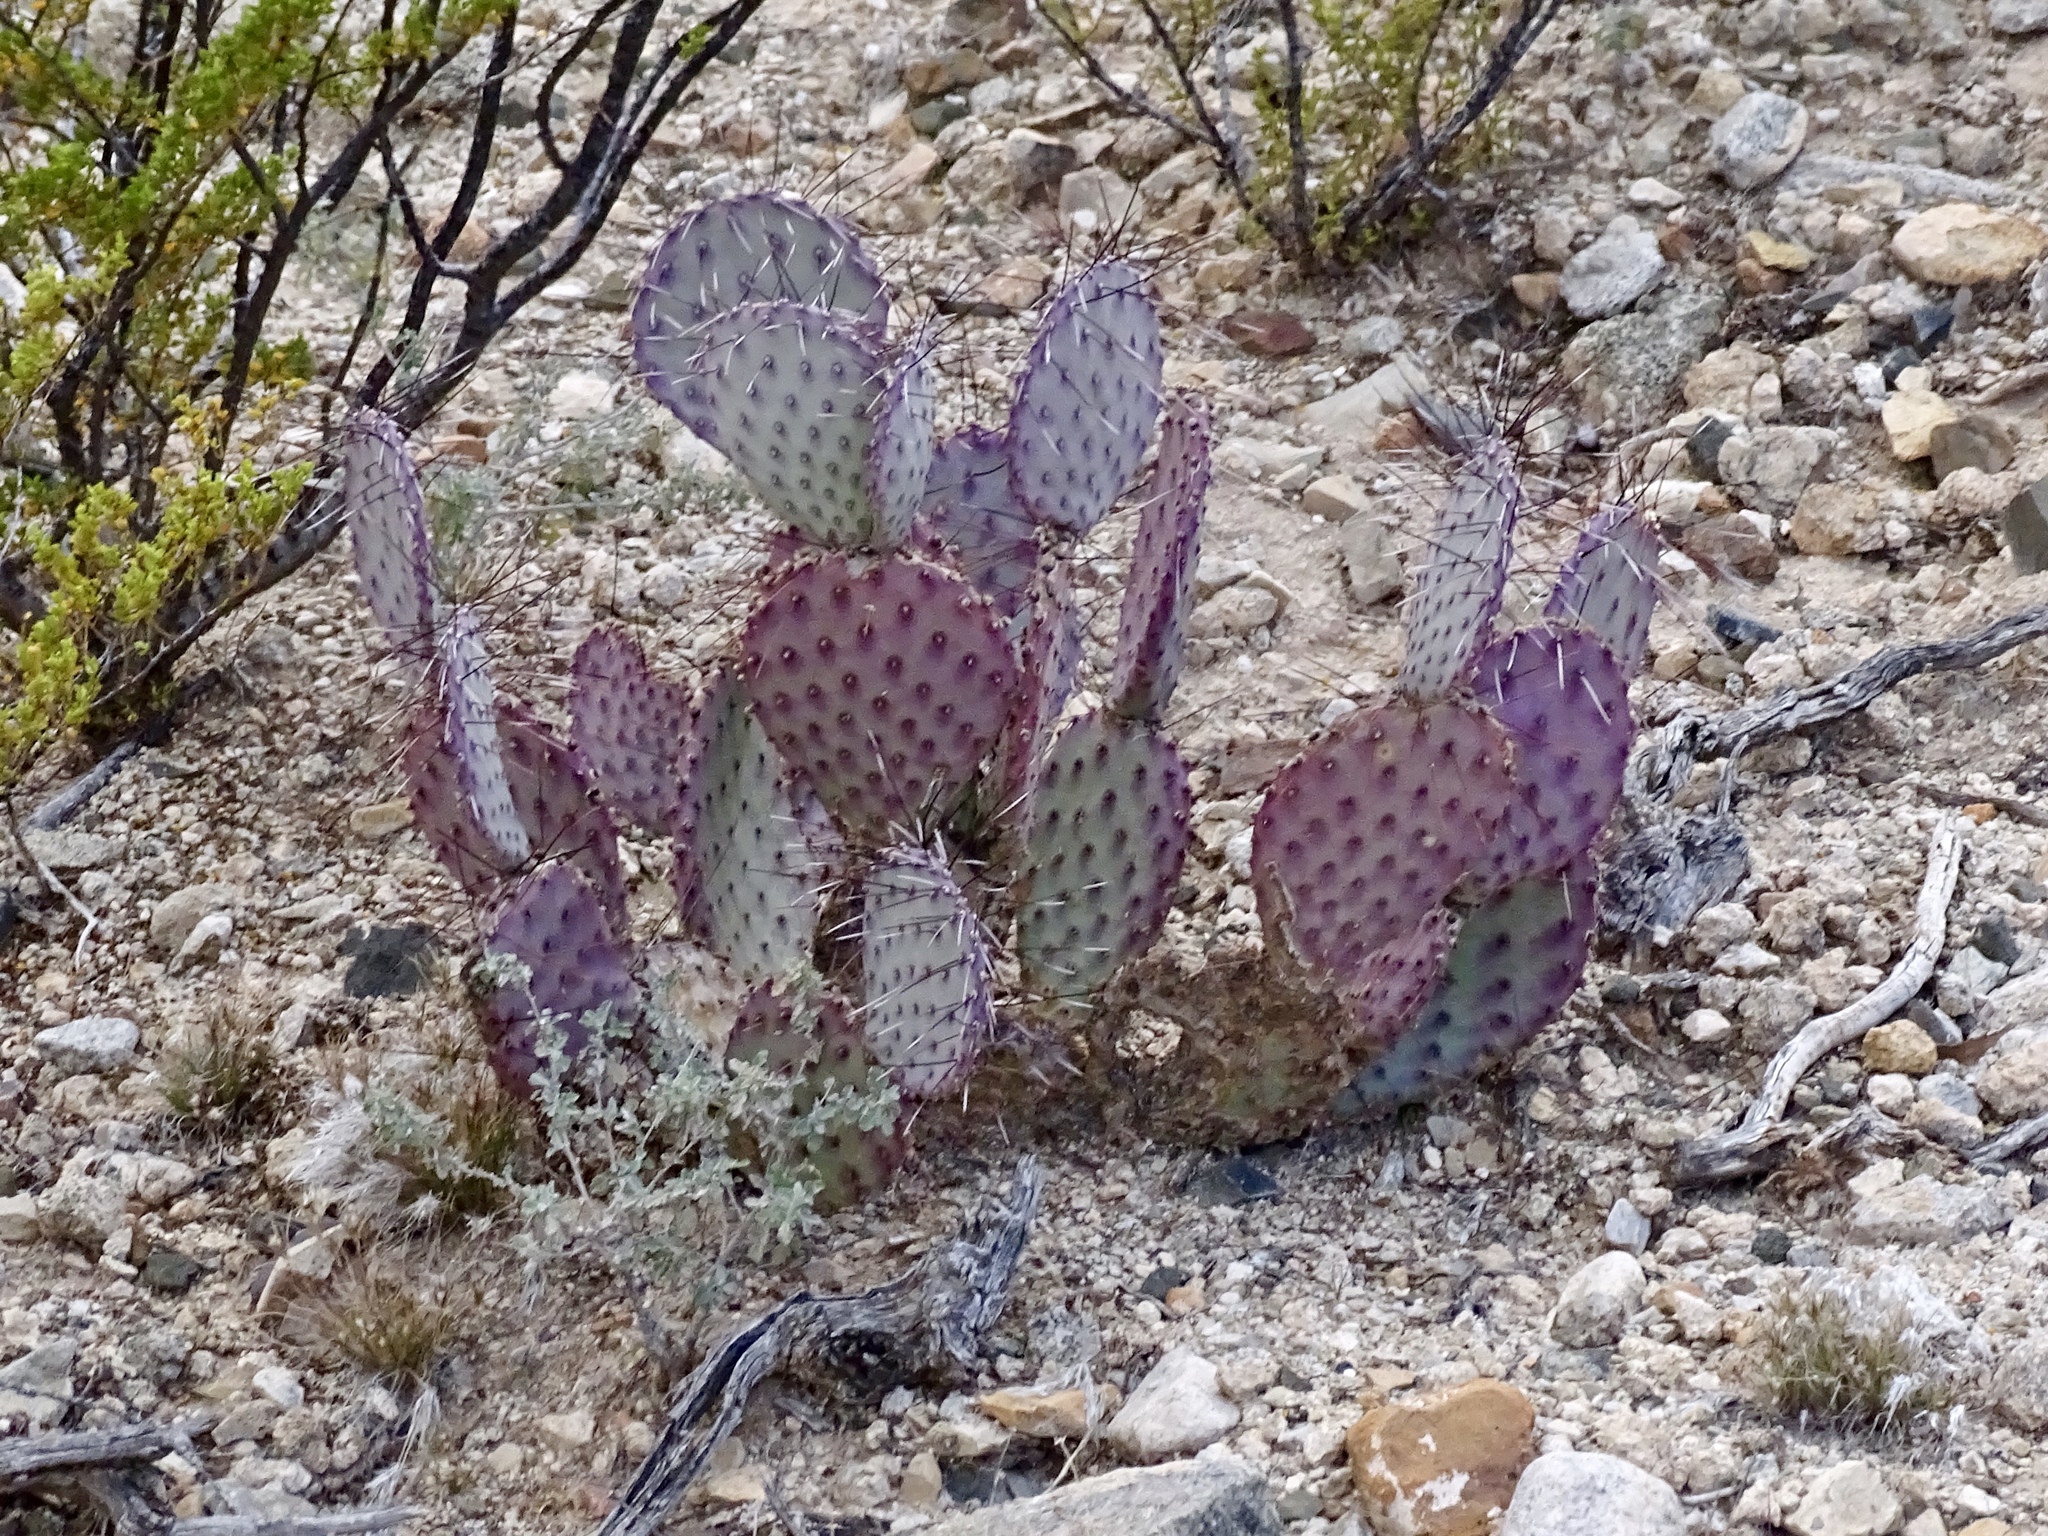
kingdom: Plantae
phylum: Tracheophyta
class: Magnoliopsida
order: Caryophyllales
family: Cactaceae
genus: Opuntia
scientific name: Opuntia macrocentra
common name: Purple prickly-pear
